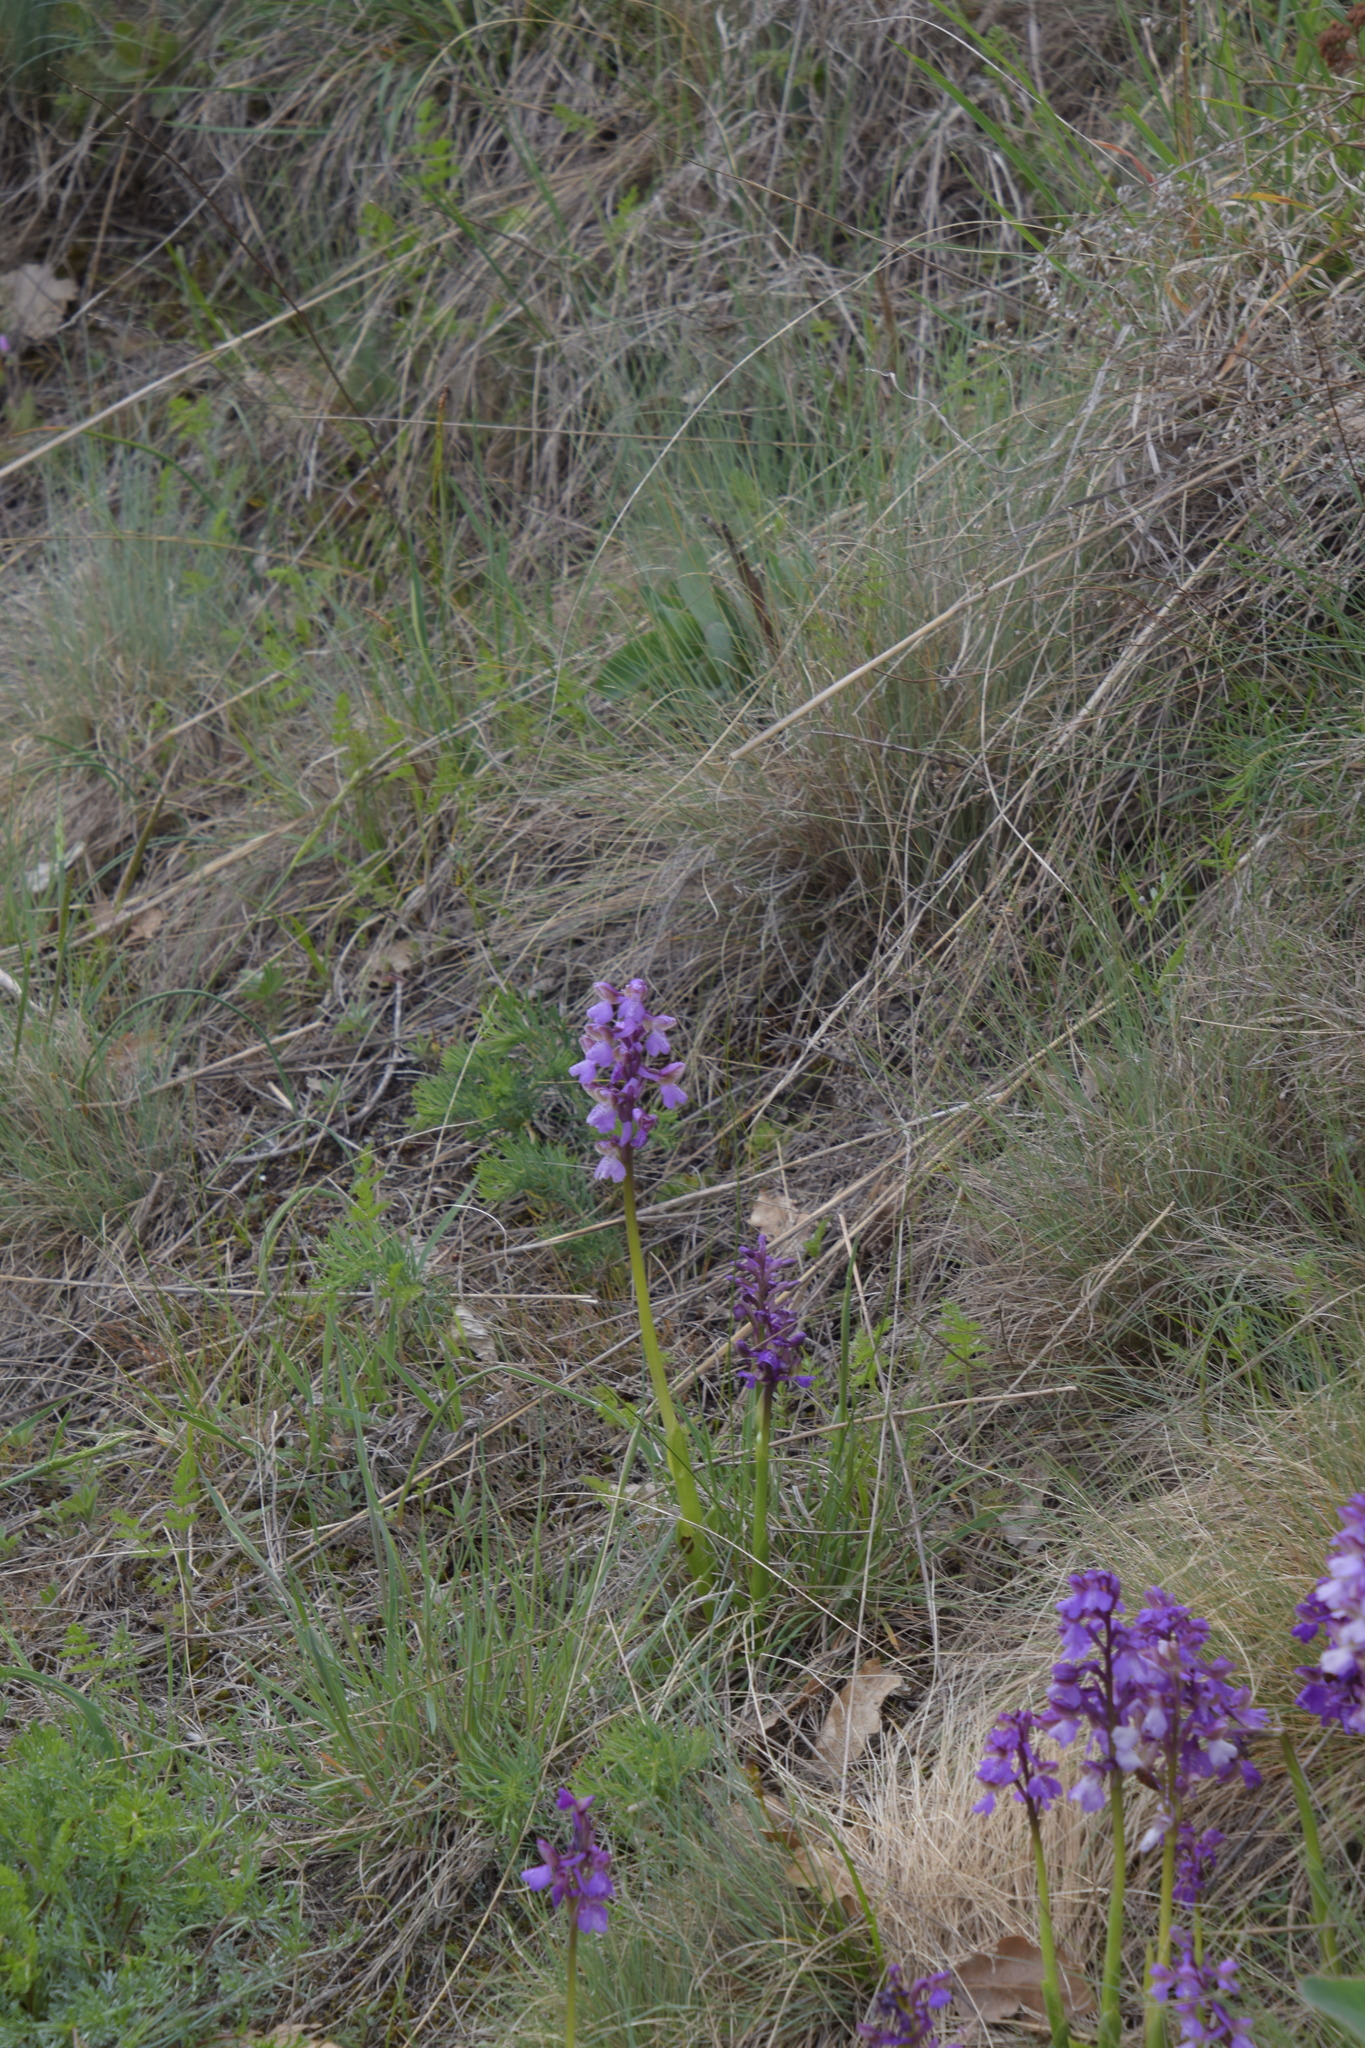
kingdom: Plantae
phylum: Tracheophyta
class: Liliopsida
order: Asparagales
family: Orchidaceae
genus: Anacamptis
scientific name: Anacamptis morio
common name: Green-winged orchid
